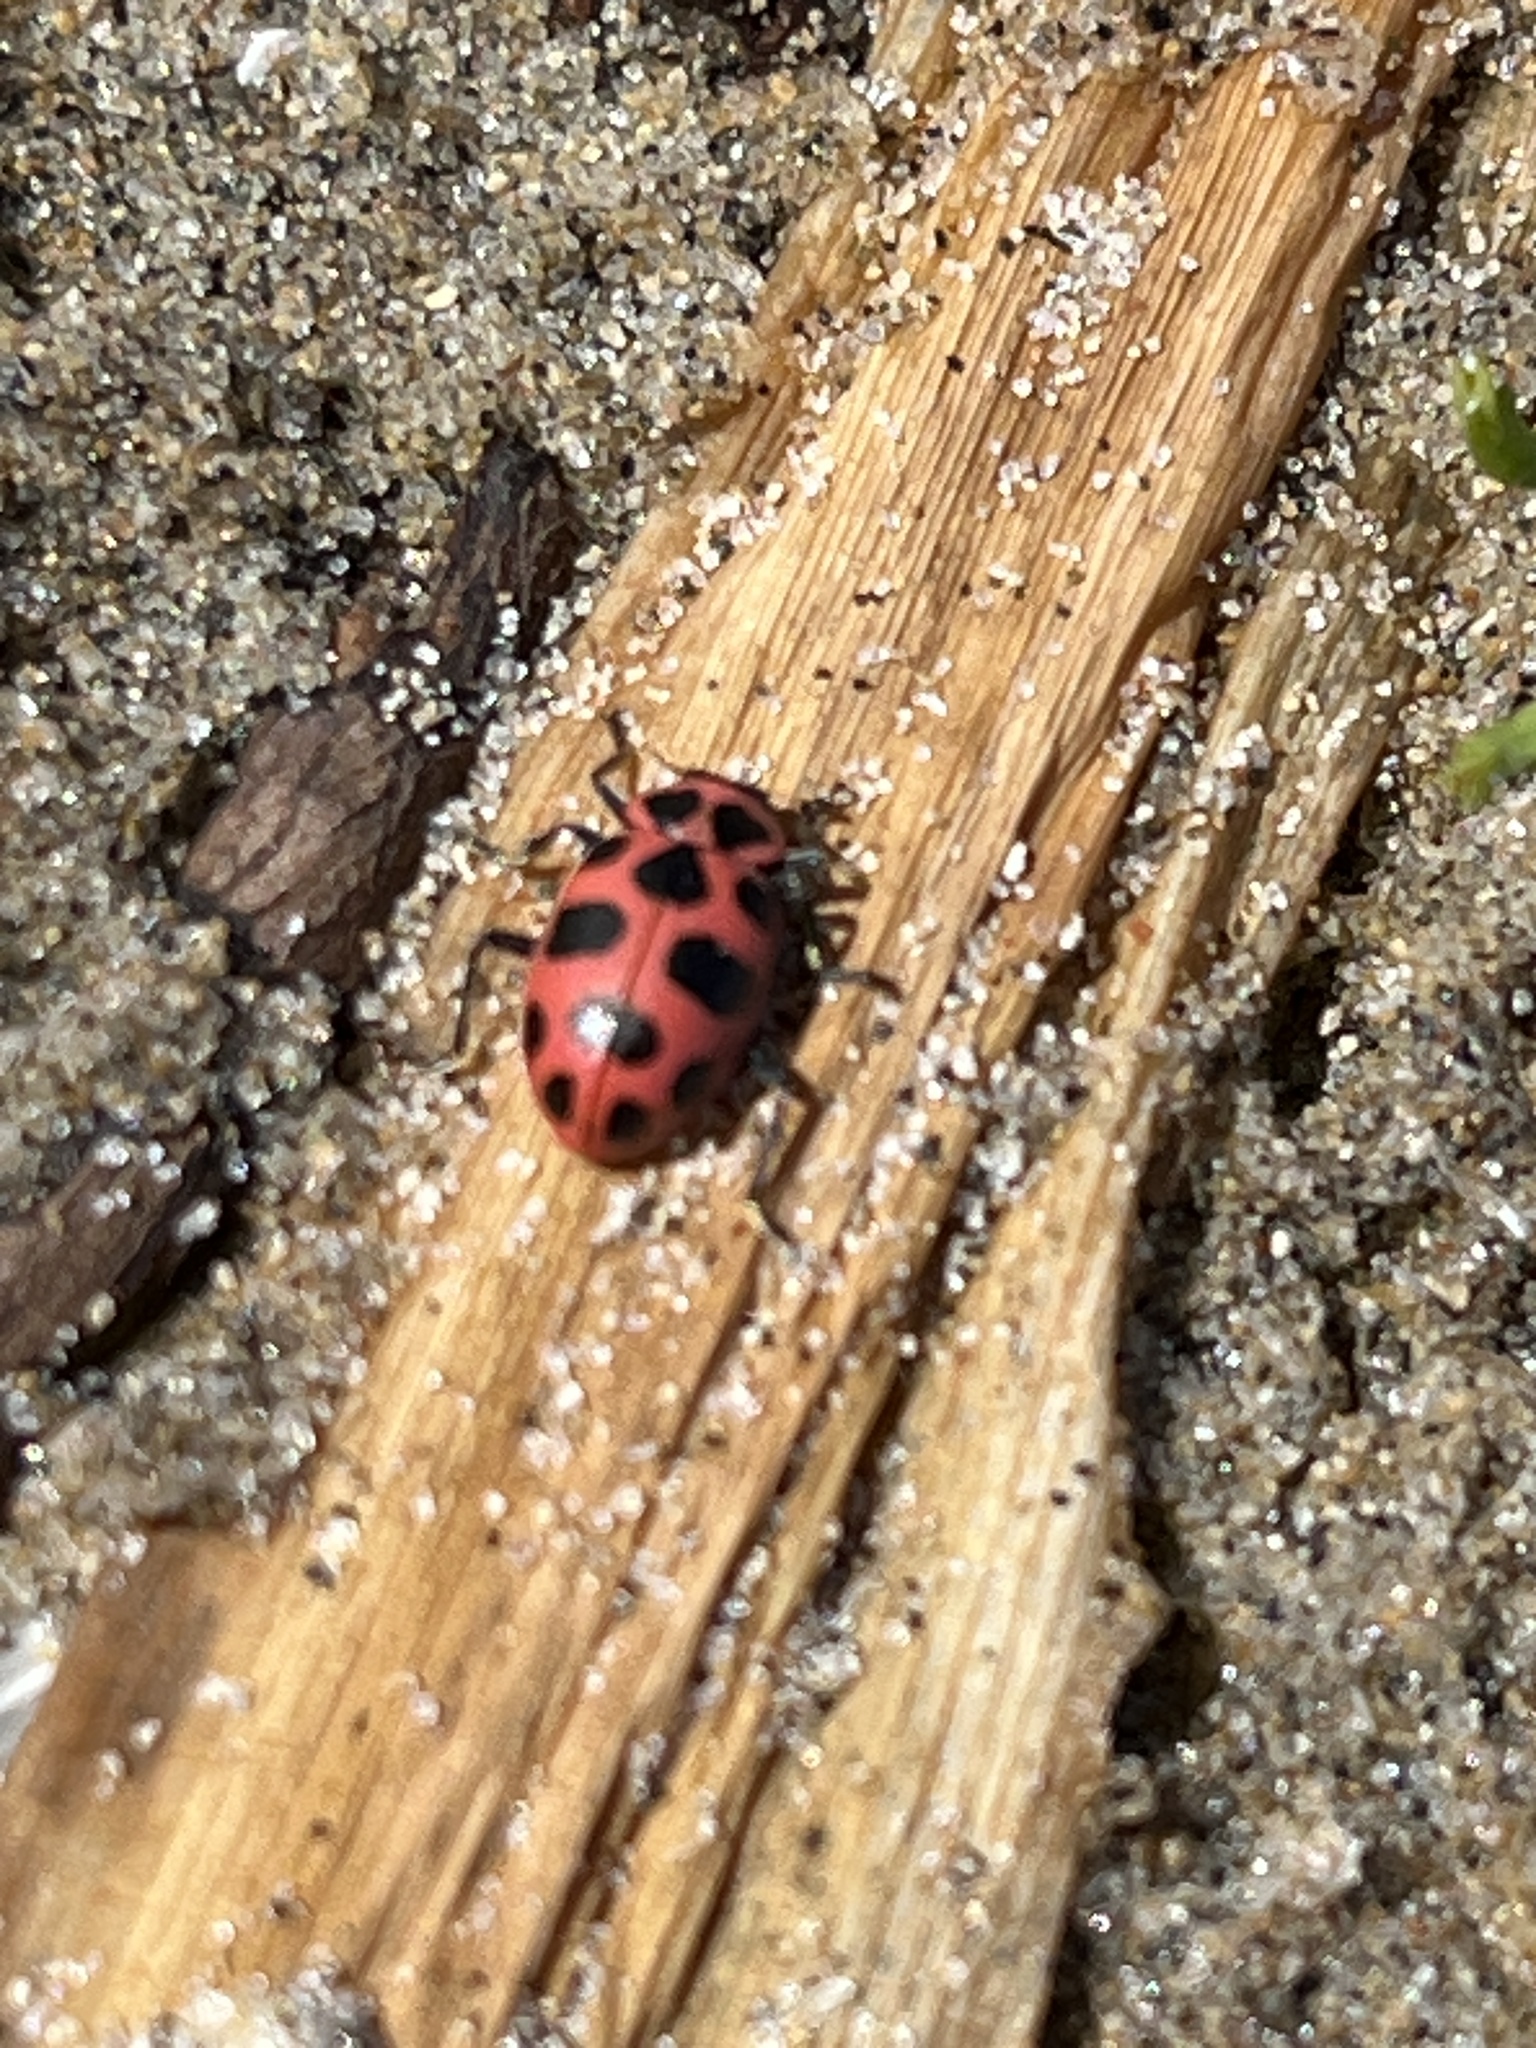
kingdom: Animalia
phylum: Arthropoda
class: Insecta
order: Coleoptera
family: Coccinellidae
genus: Coleomegilla
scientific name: Coleomegilla maculata
